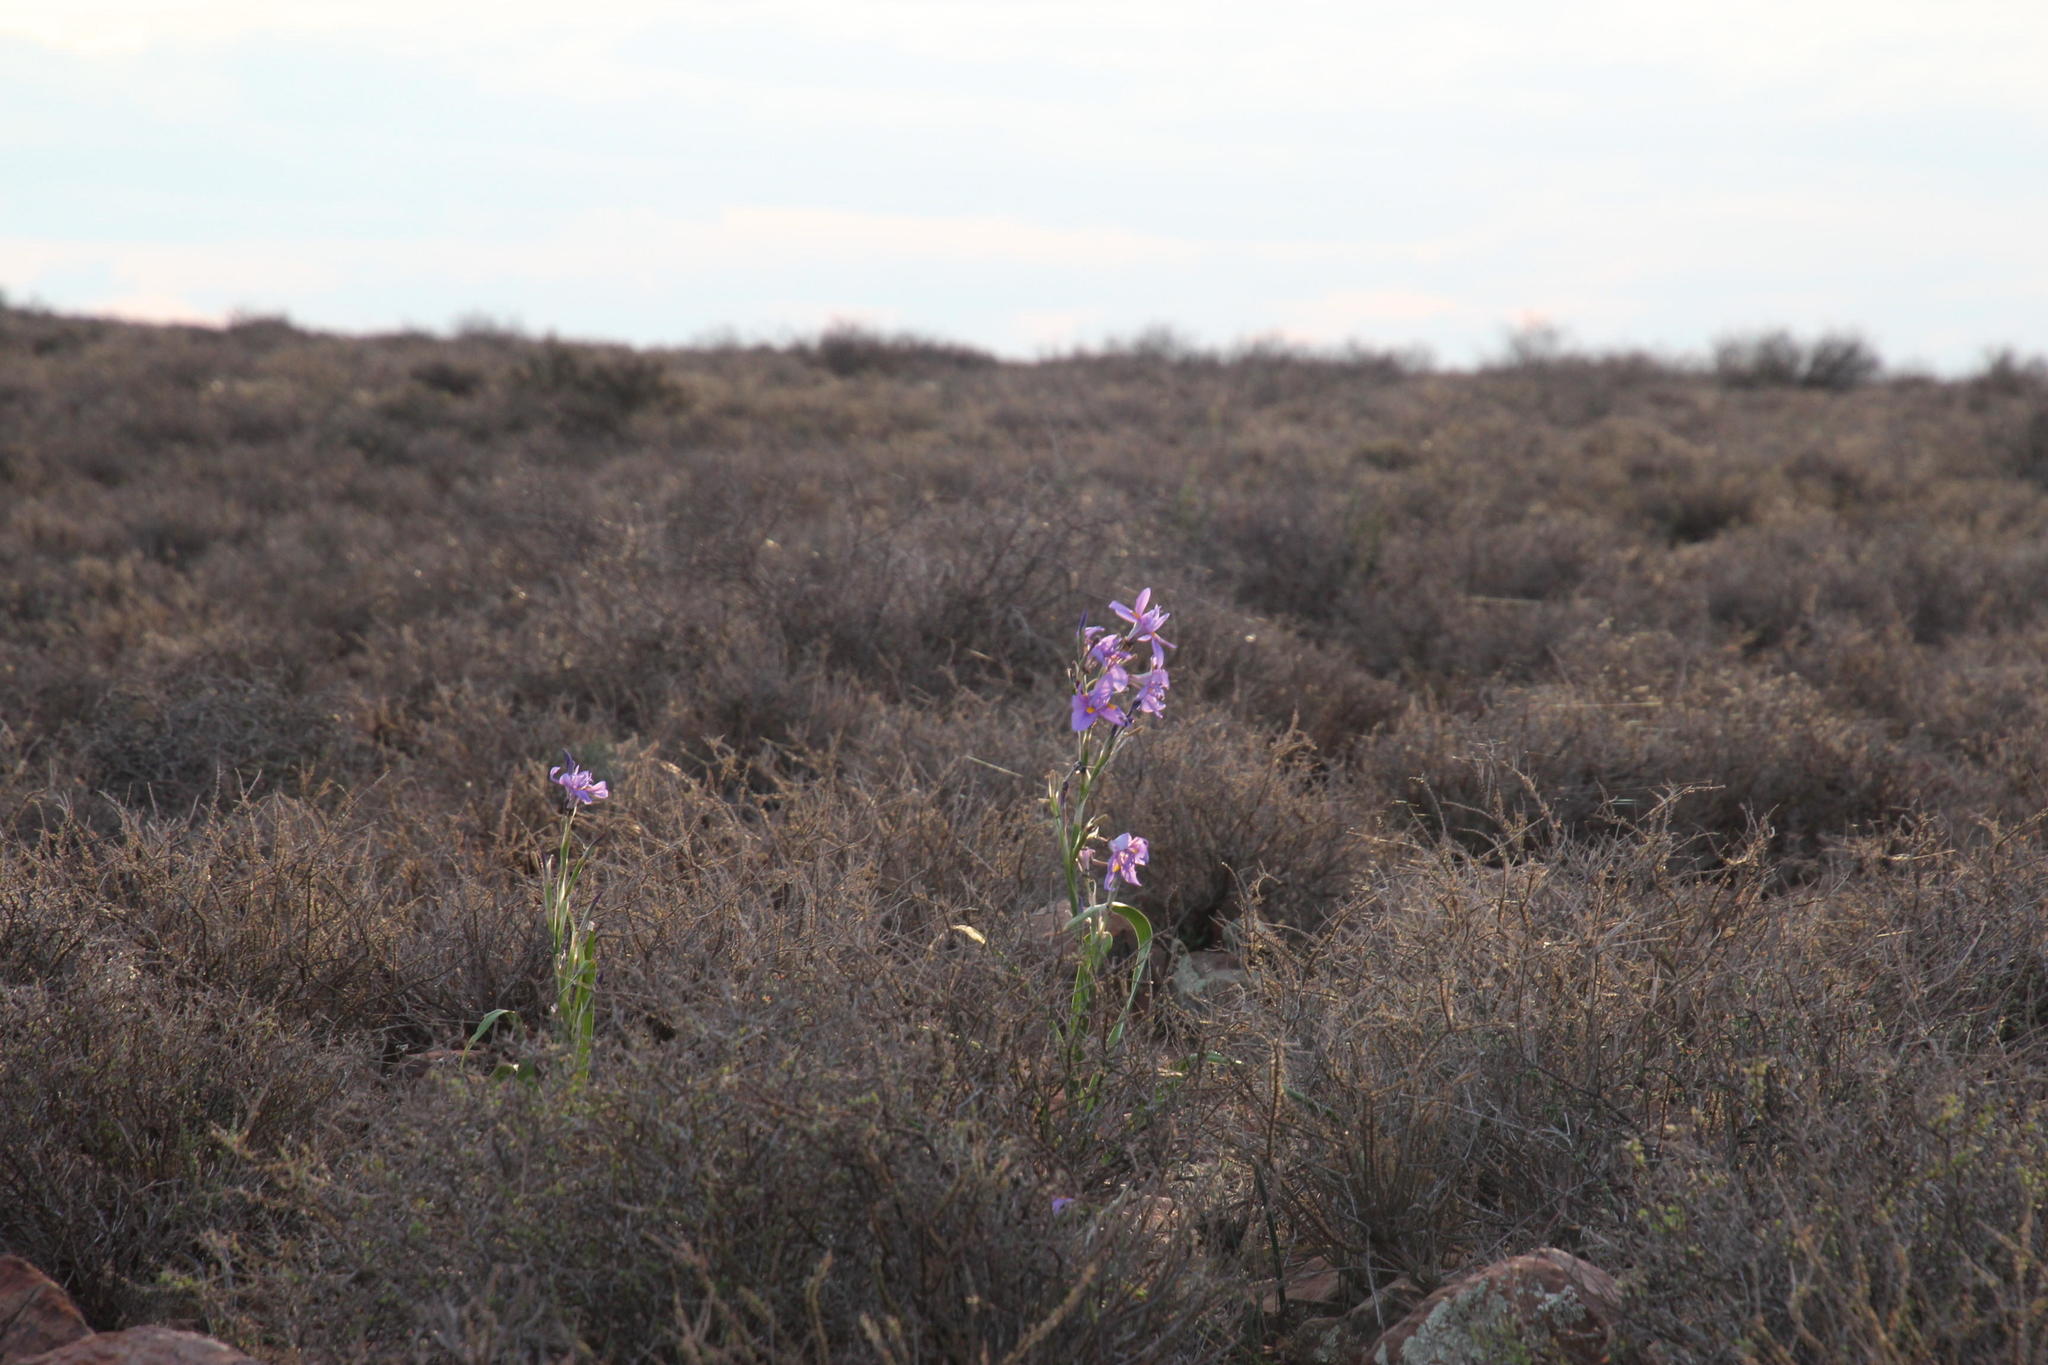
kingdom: Plantae
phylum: Tracheophyta
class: Liliopsida
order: Asparagales
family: Iridaceae
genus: Moraea
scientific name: Moraea polystachya
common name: Blue-tulip
